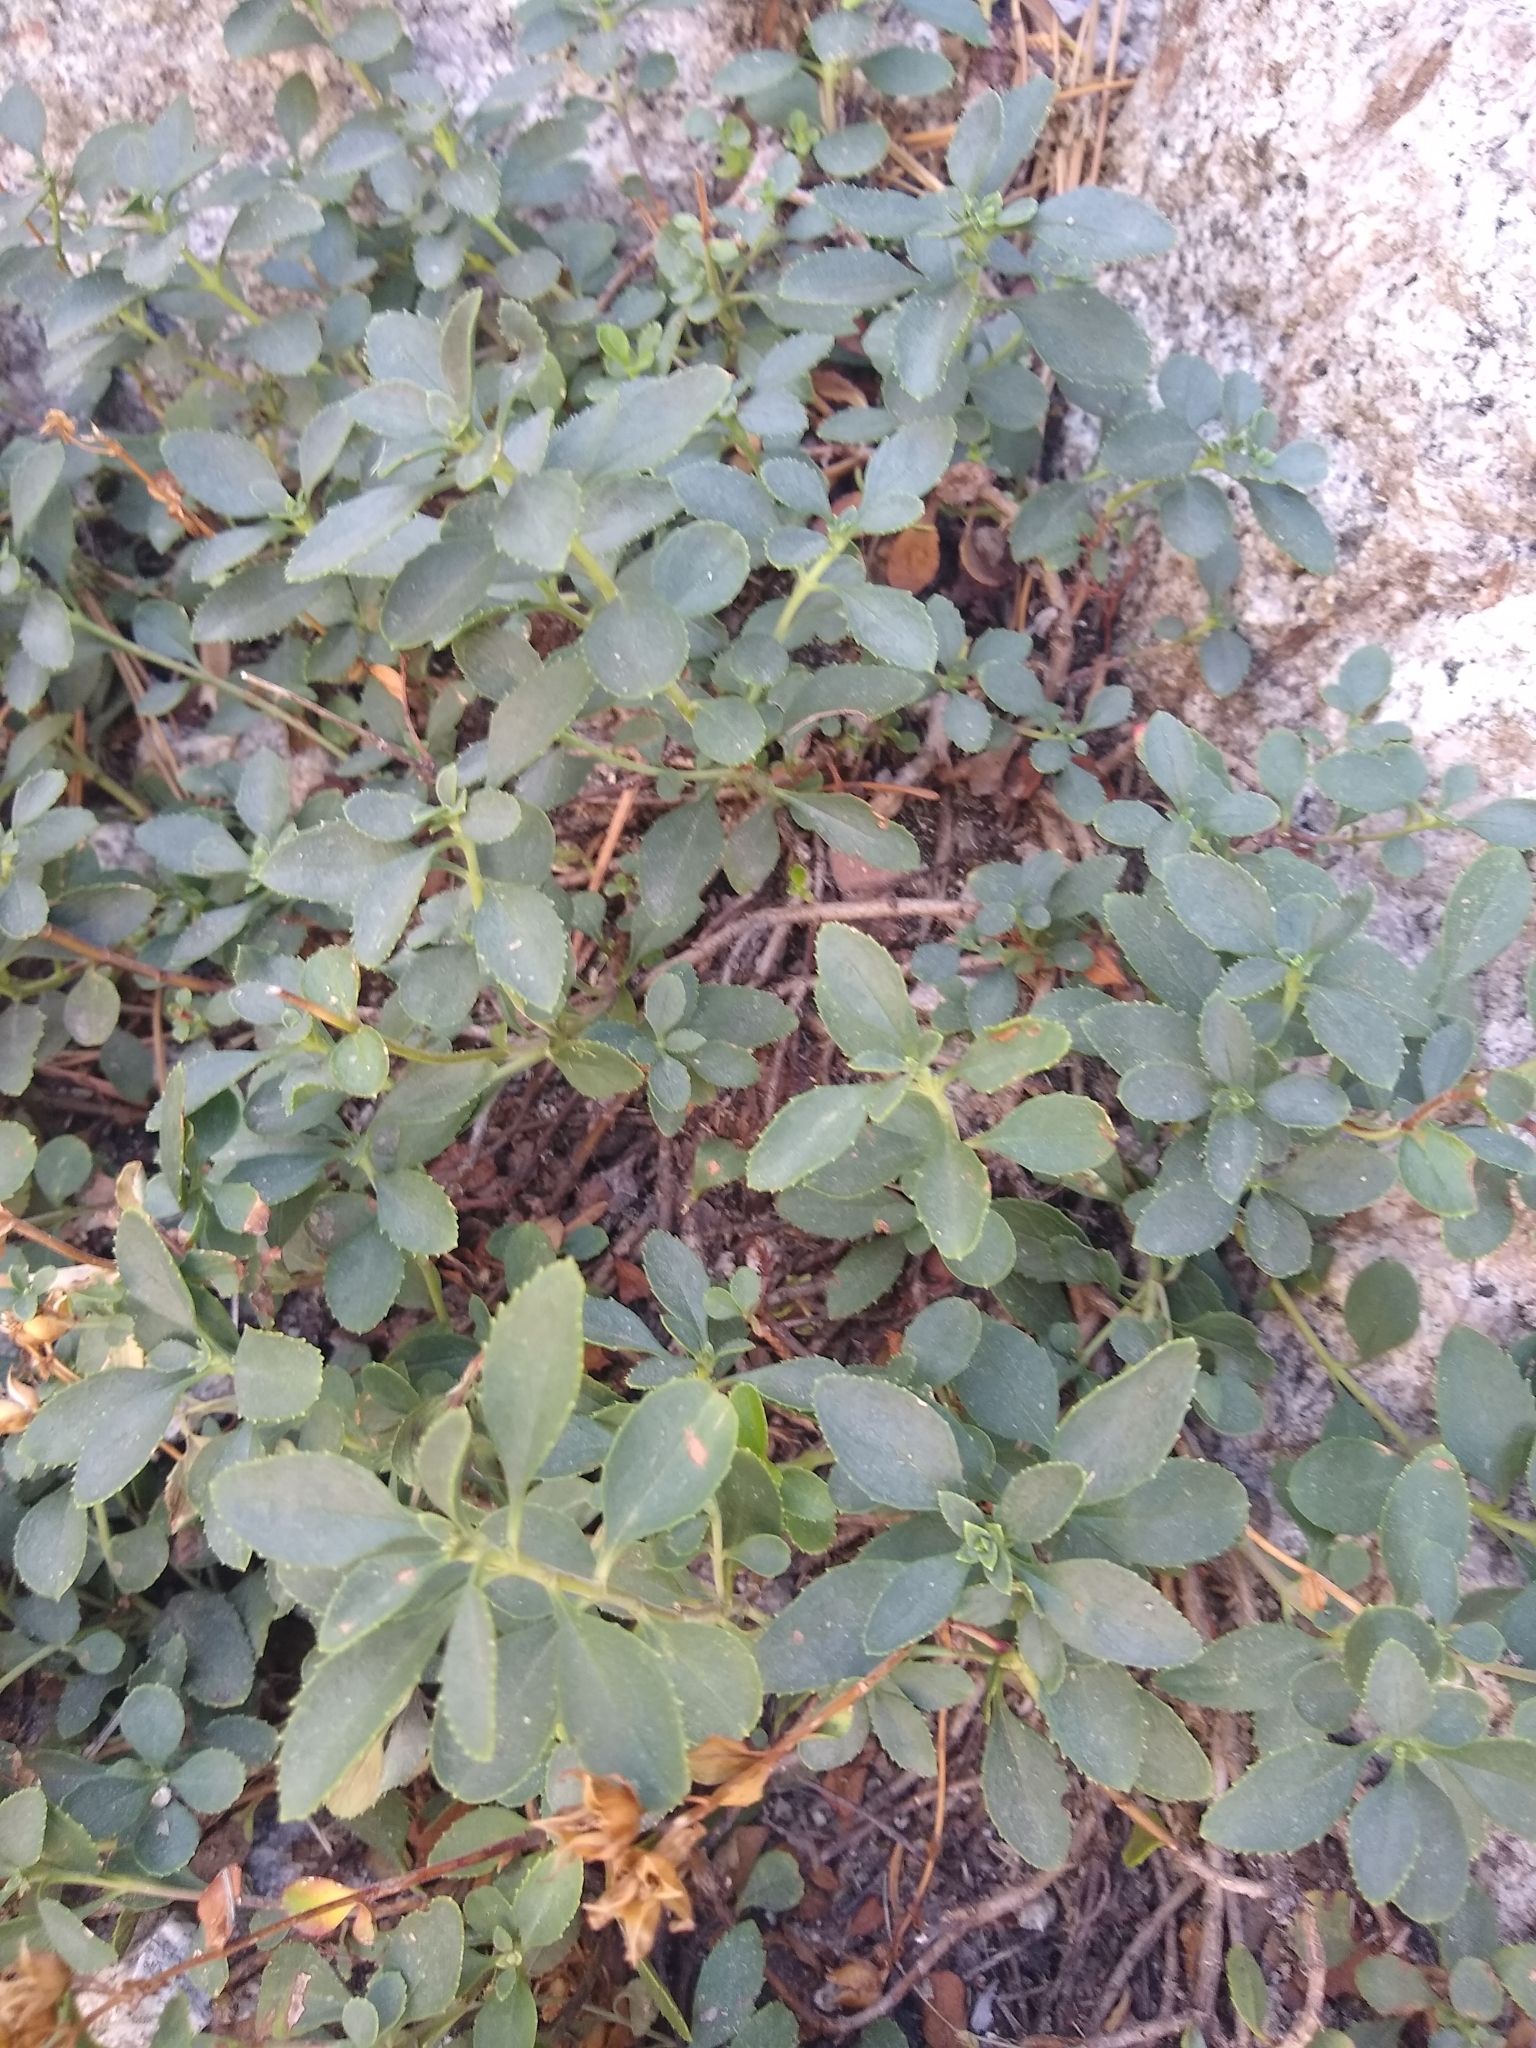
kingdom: Plantae
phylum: Tracheophyta
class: Magnoliopsida
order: Lamiales
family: Plantaginaceae
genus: Penstemon
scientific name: Penstemon newberryi
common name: Mountain-pride
